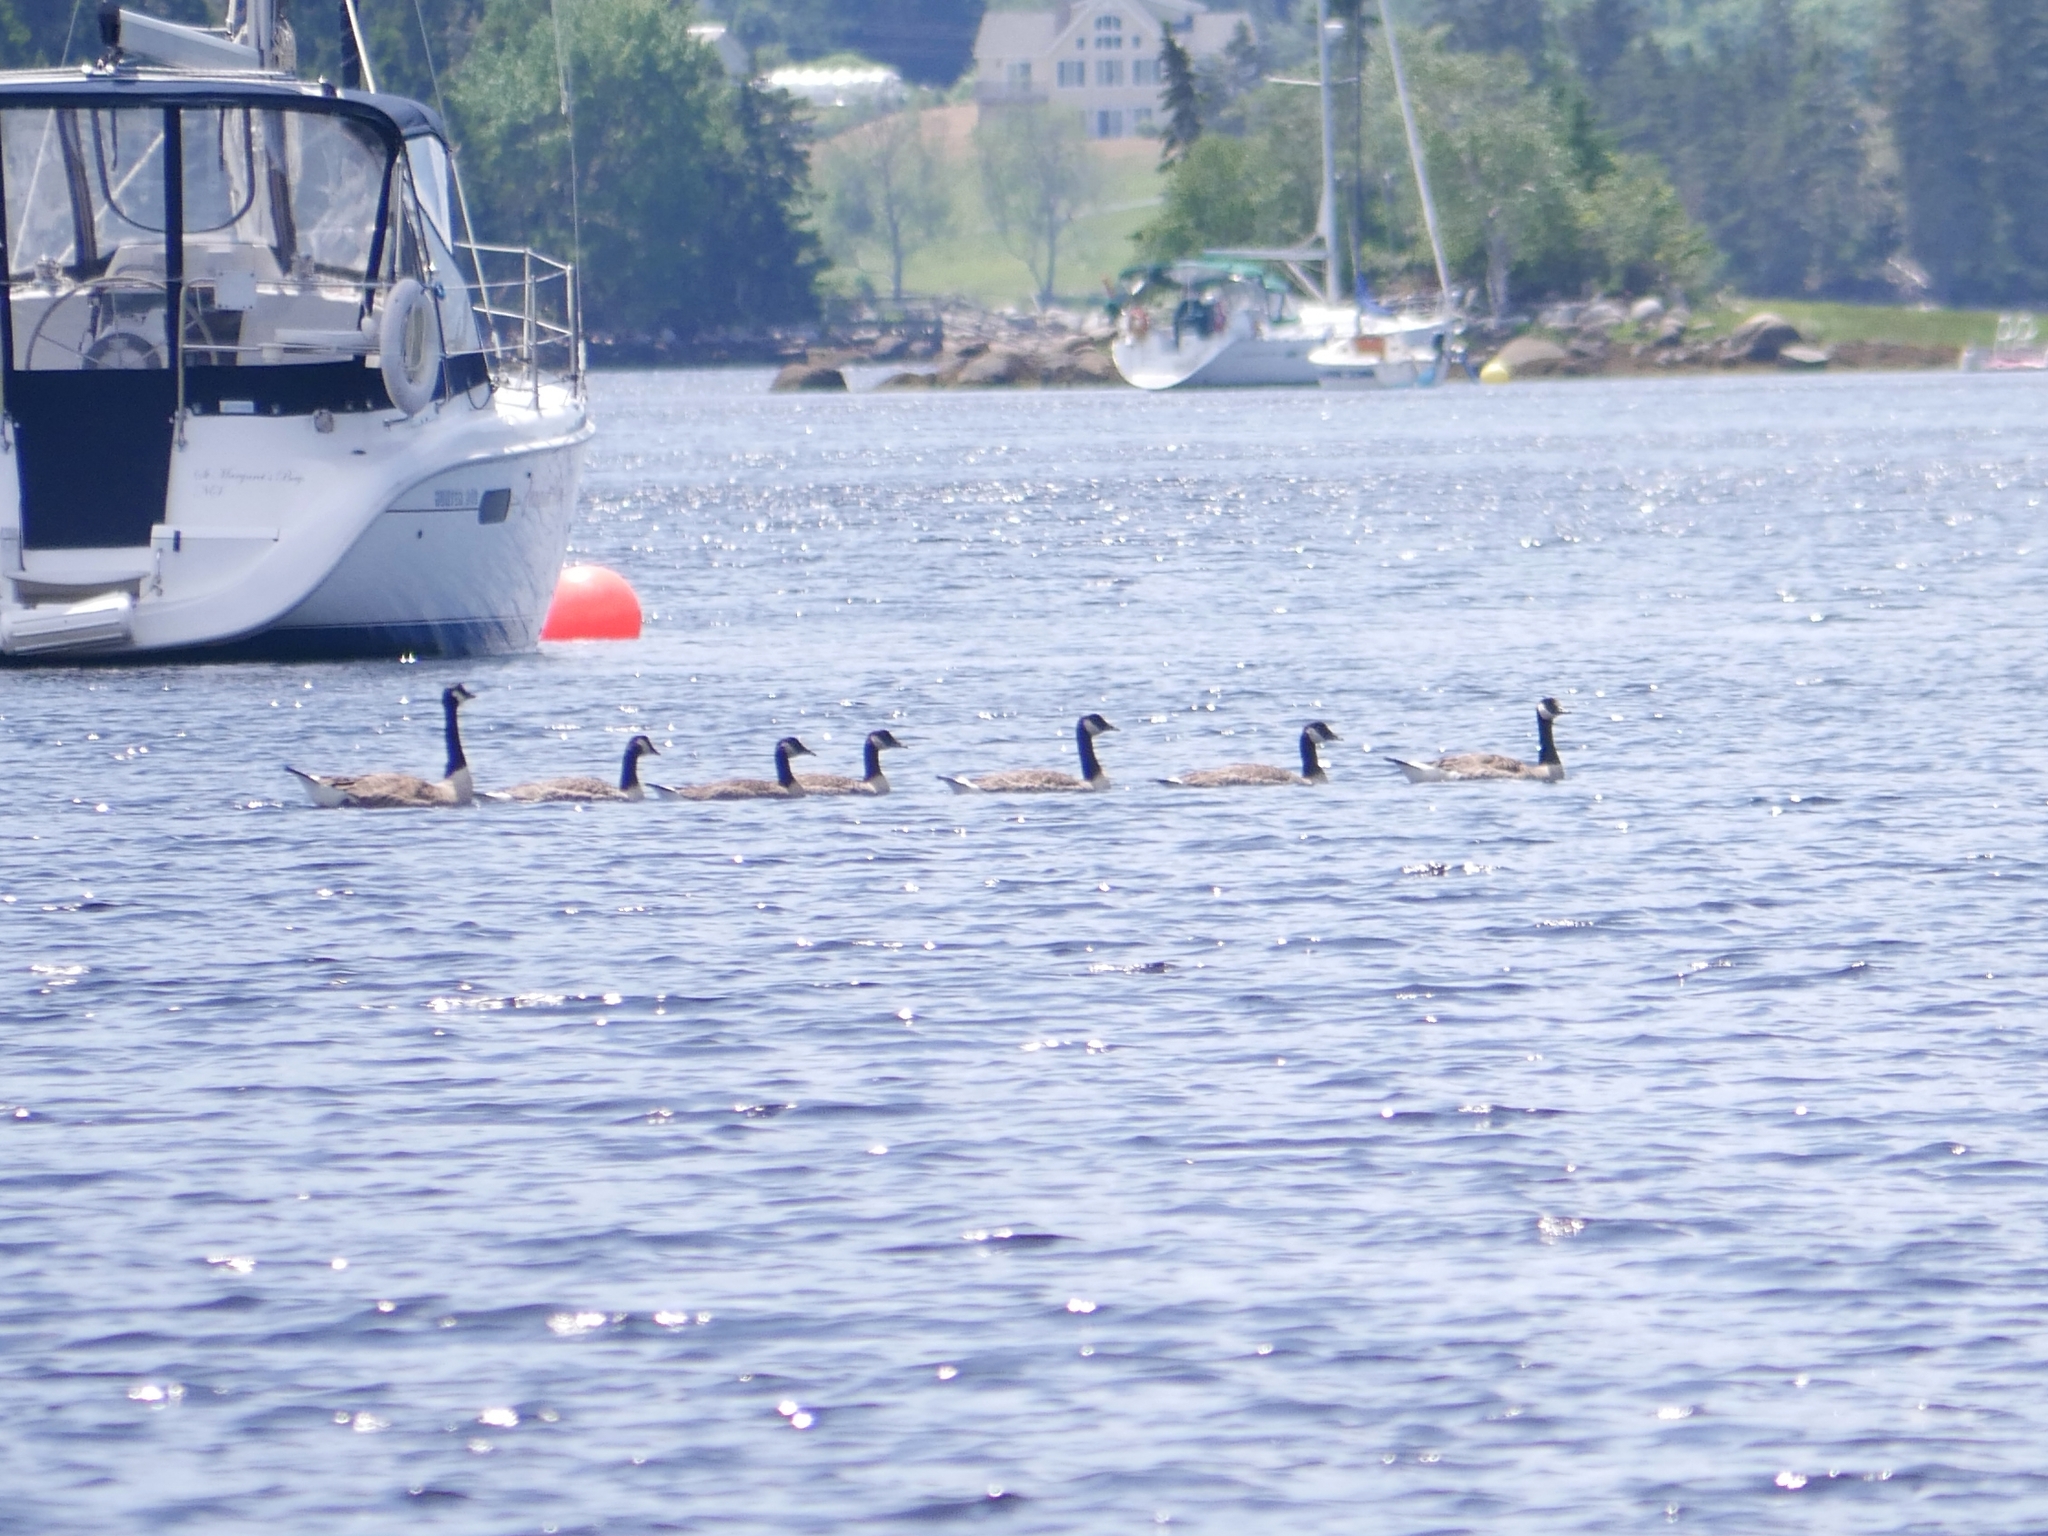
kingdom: Animalia
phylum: Chordata
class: Aves
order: Anseriformes
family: Anatidae
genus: Branta
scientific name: Branta canadensis
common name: Canada goose
